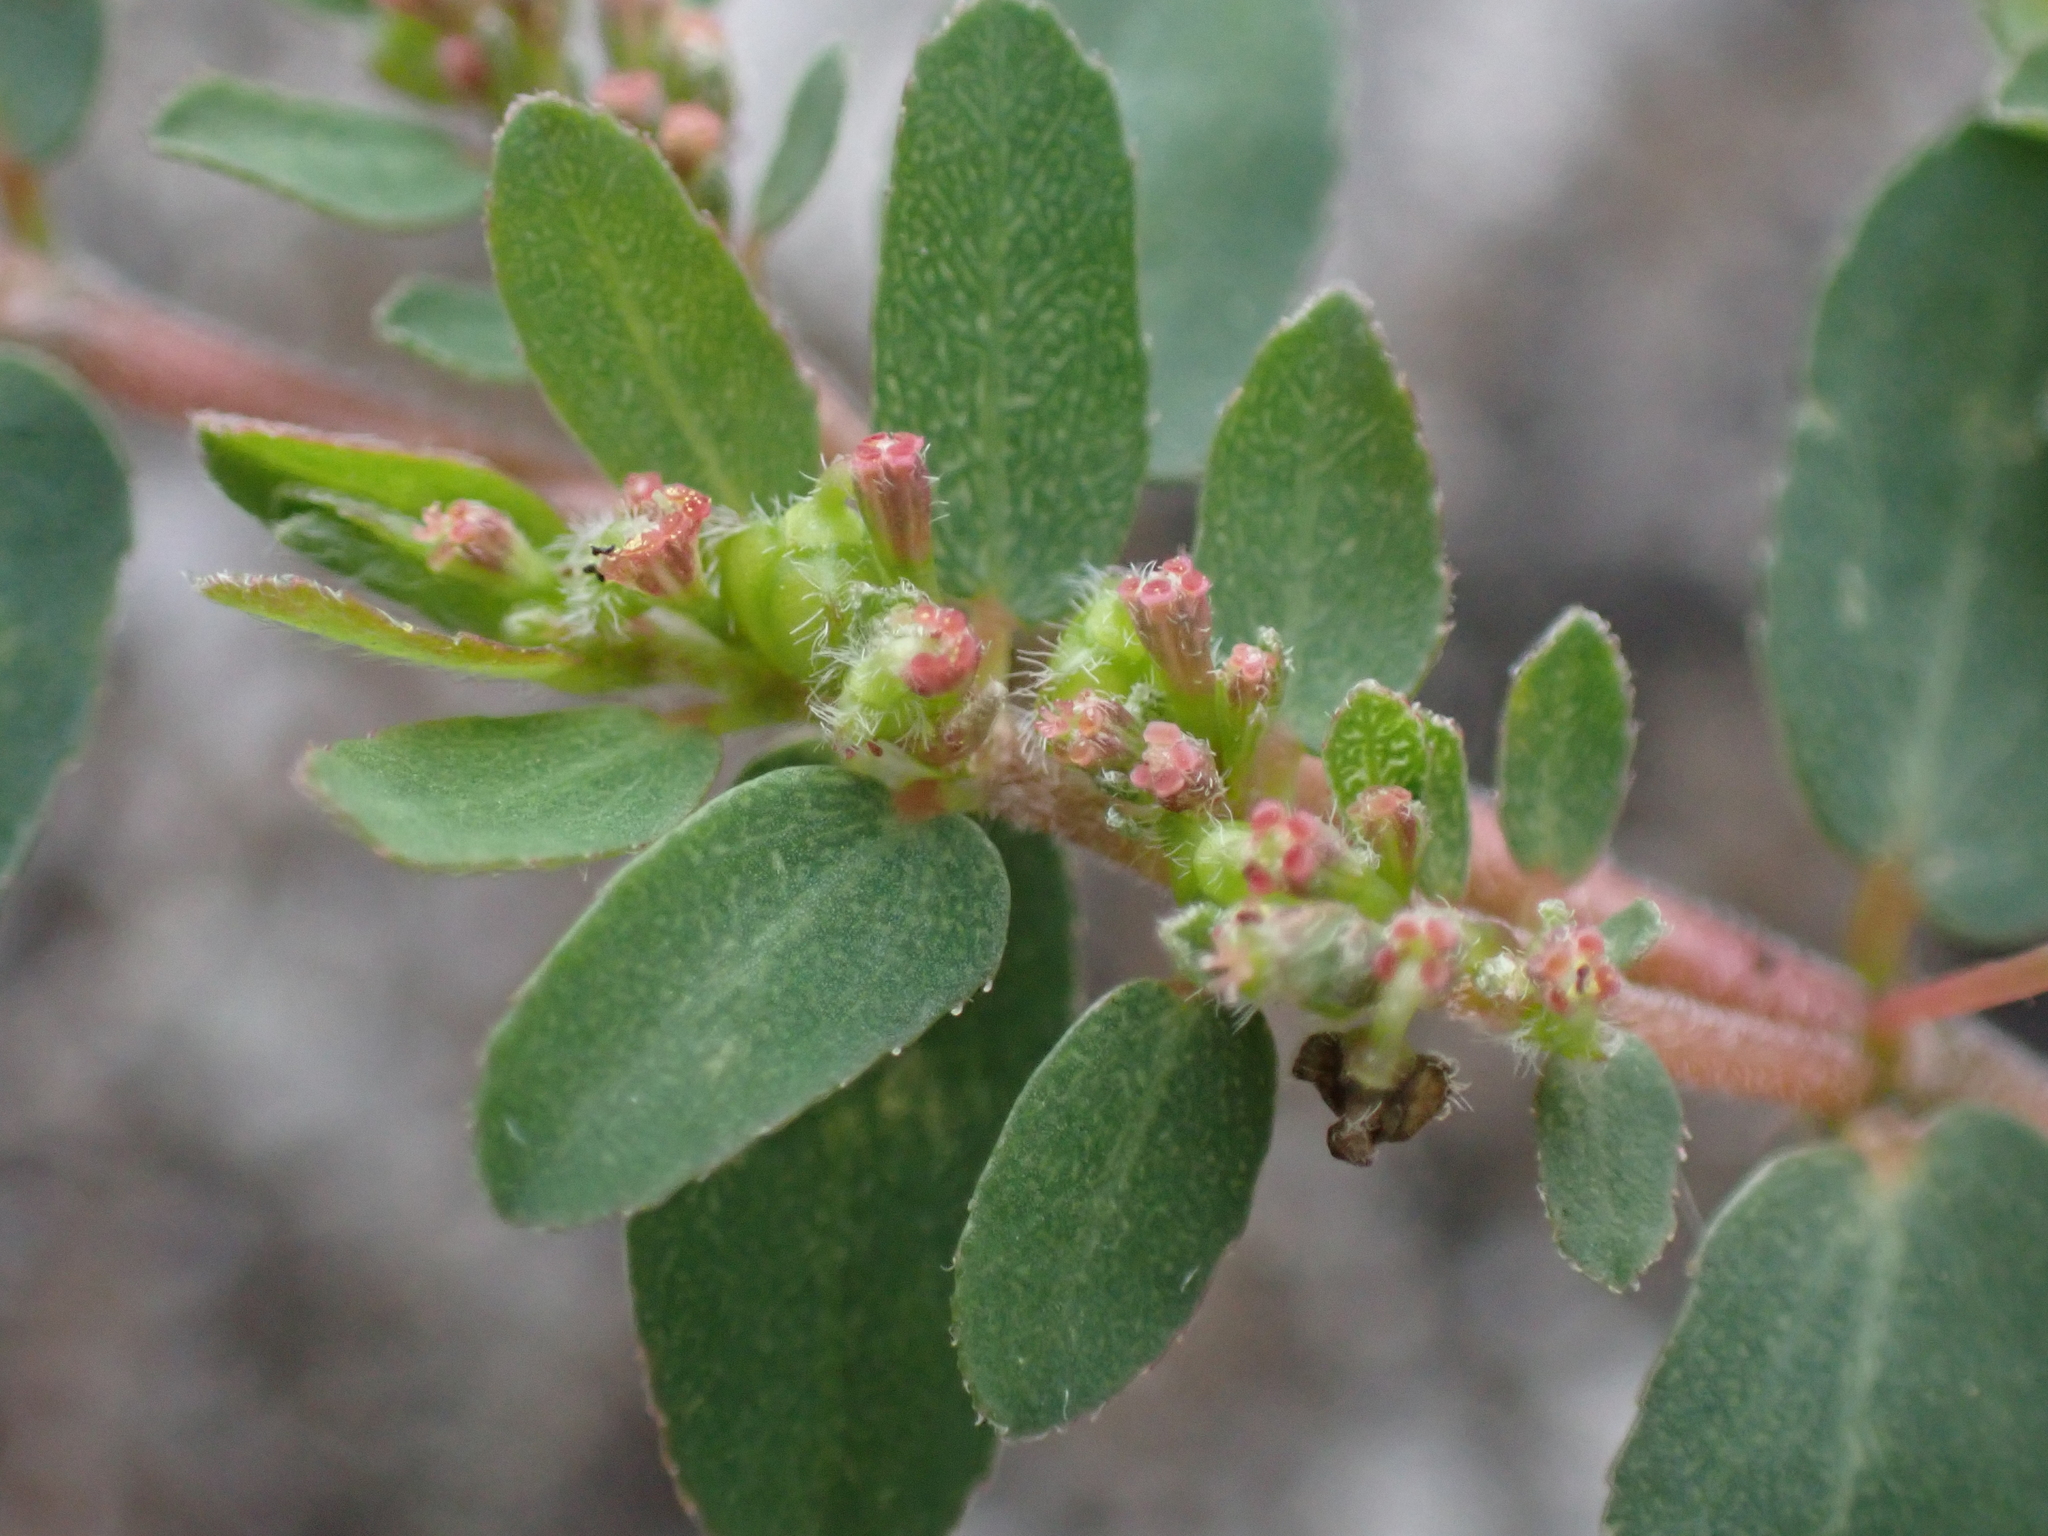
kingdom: Plantae
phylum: Tracheophyta
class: Magnoliopsida
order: Malpighiales
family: Euphorbiaceae
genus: Euphorbia
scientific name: Euphorbia prostrata
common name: Prostrate sandmat
